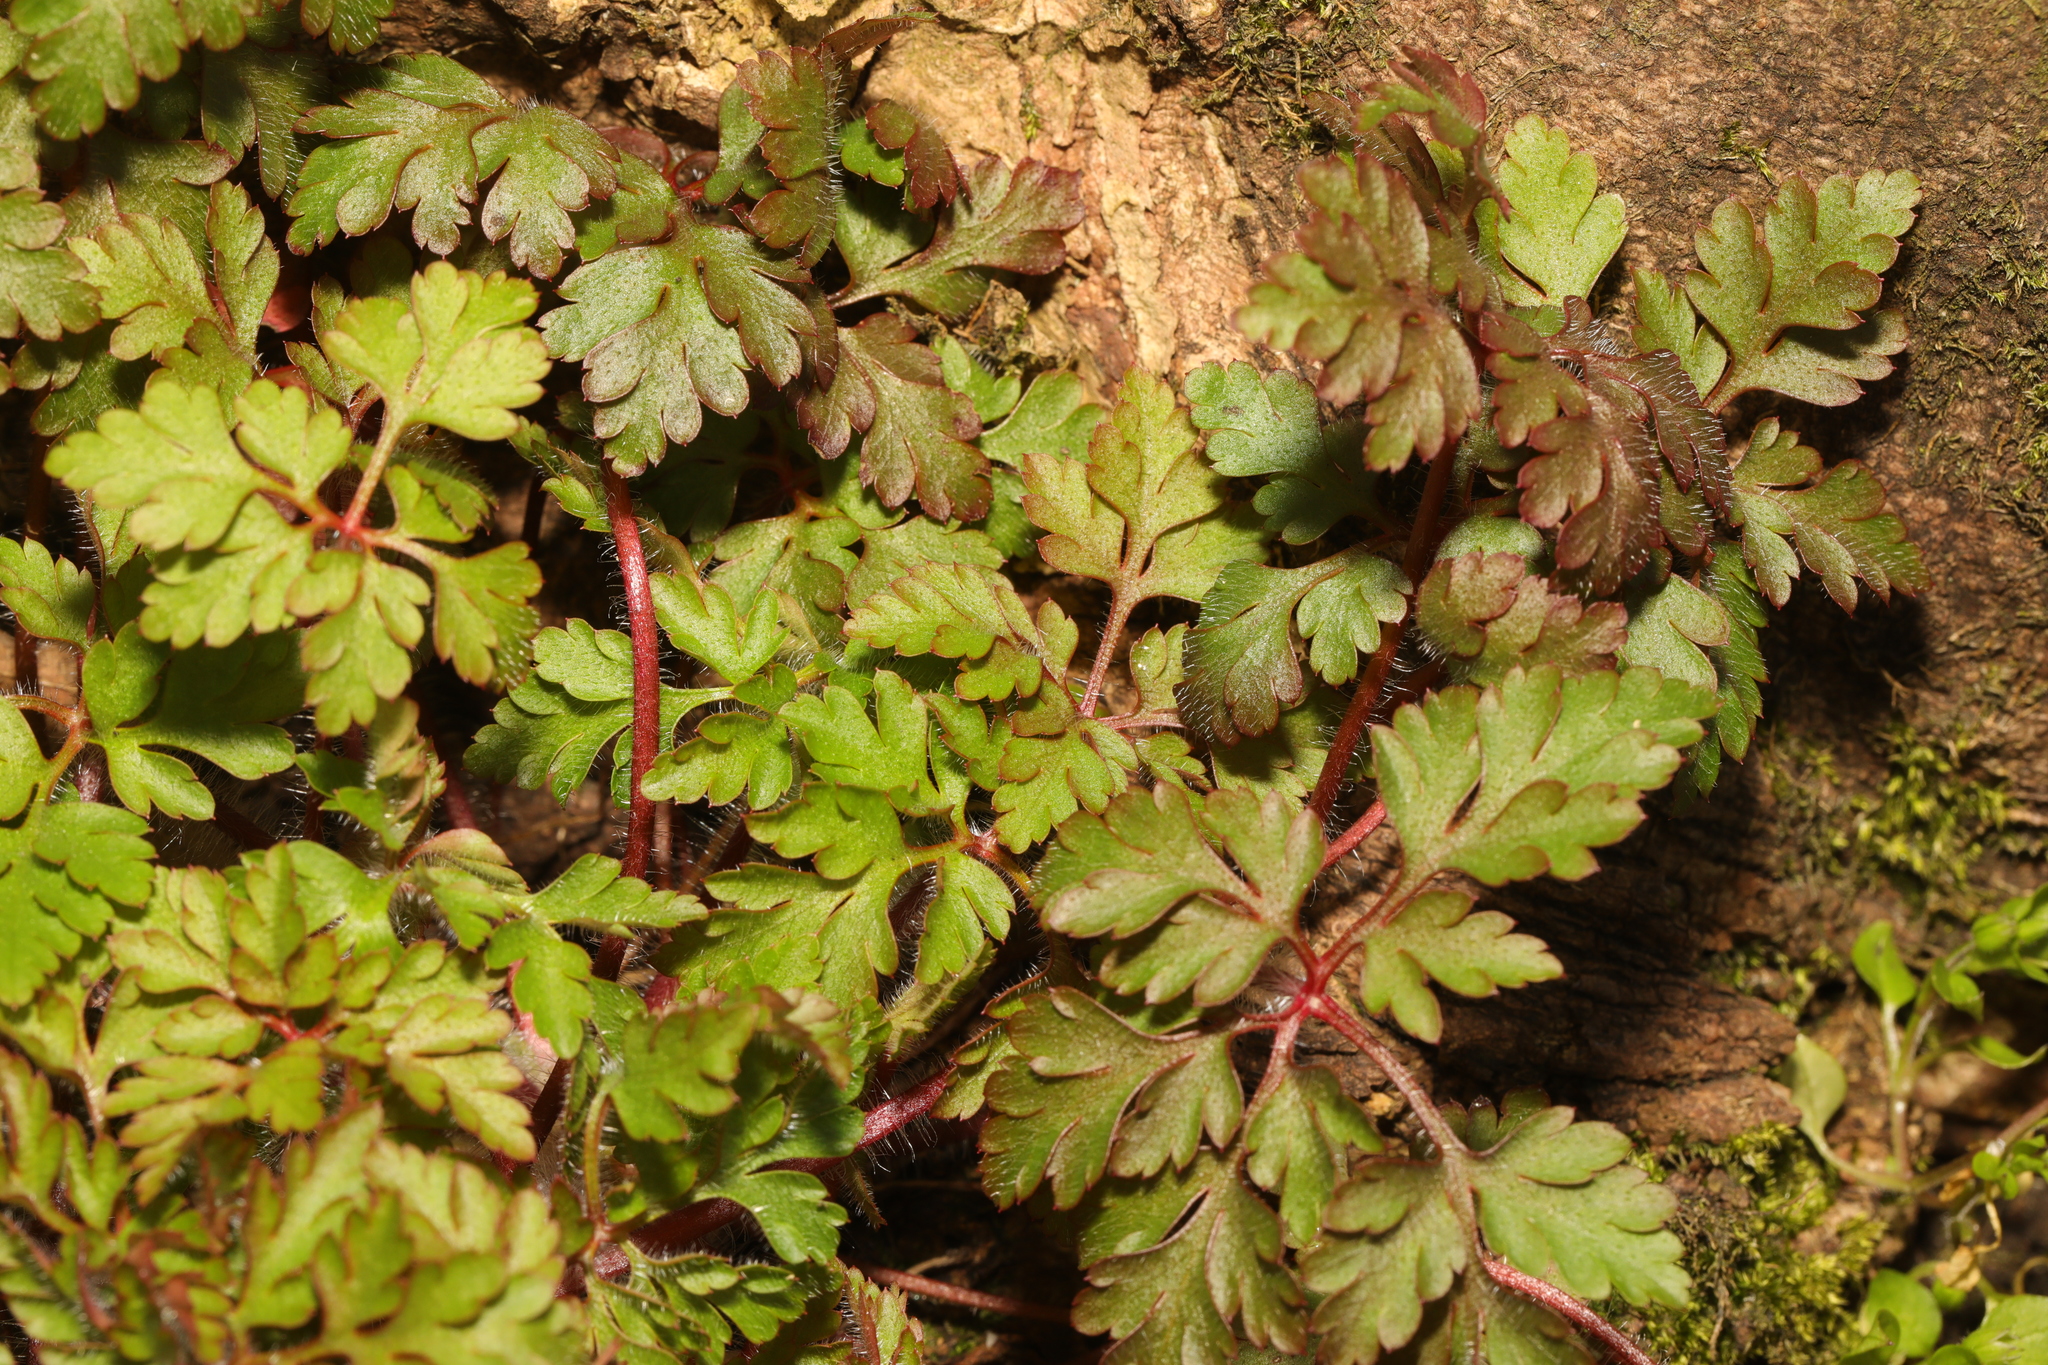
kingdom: Plantae
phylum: Tracheophyta
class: Magnoliopsida
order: Geraniales
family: Geraniaceae
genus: Geranium
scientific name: Geranium robertianum
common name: Herb-robert
